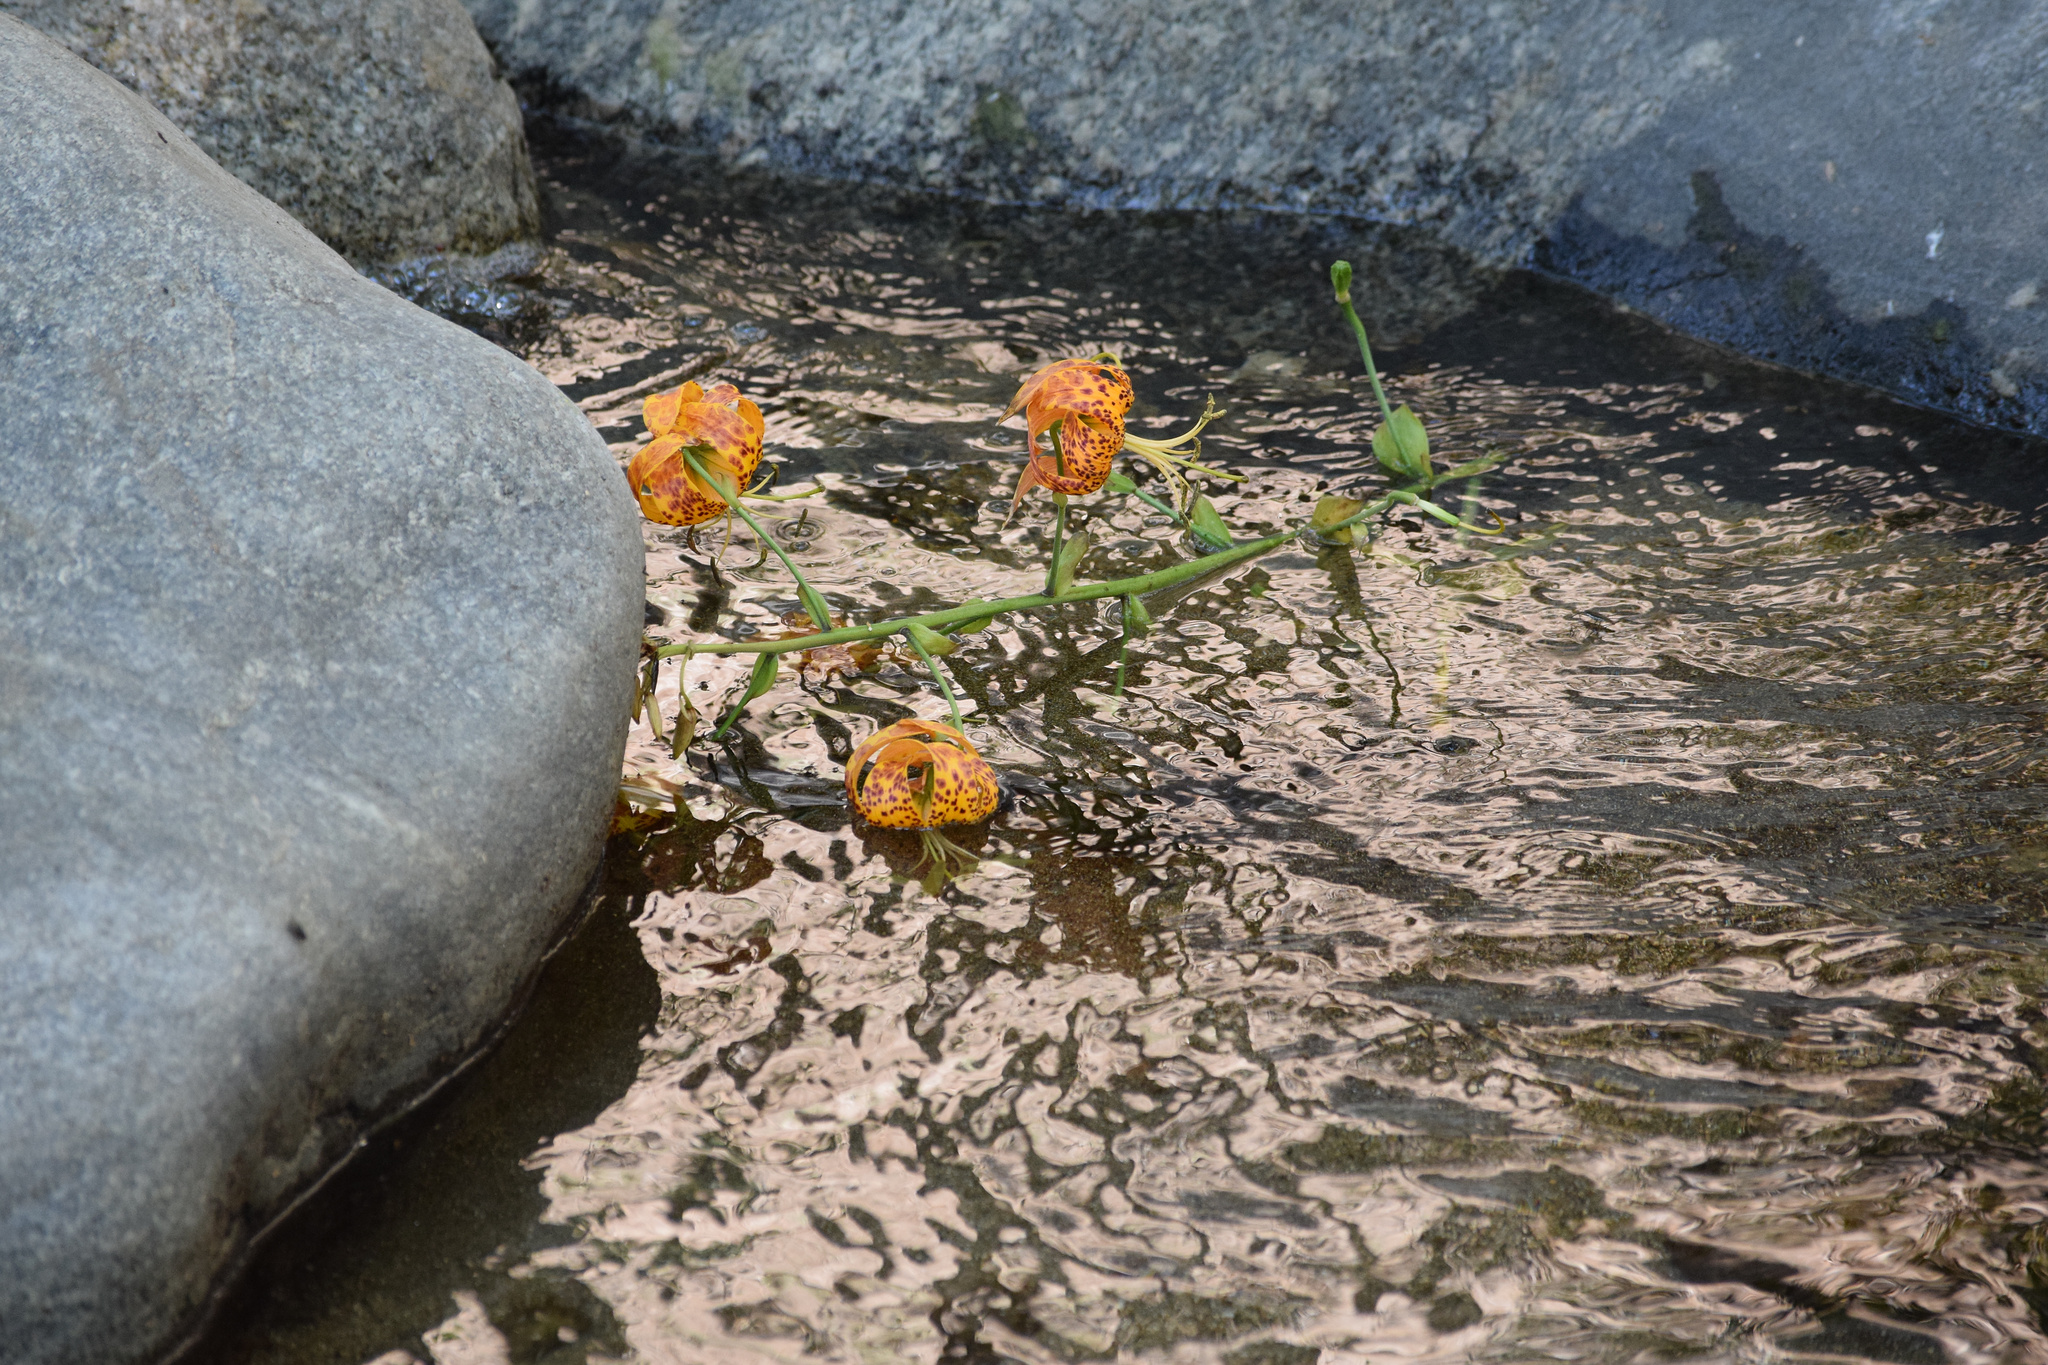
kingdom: Plantae
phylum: Tracheophyta
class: Liliopsida
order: Liliales
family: Liliaceae
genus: Lilium
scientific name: Lilium humboldtii
